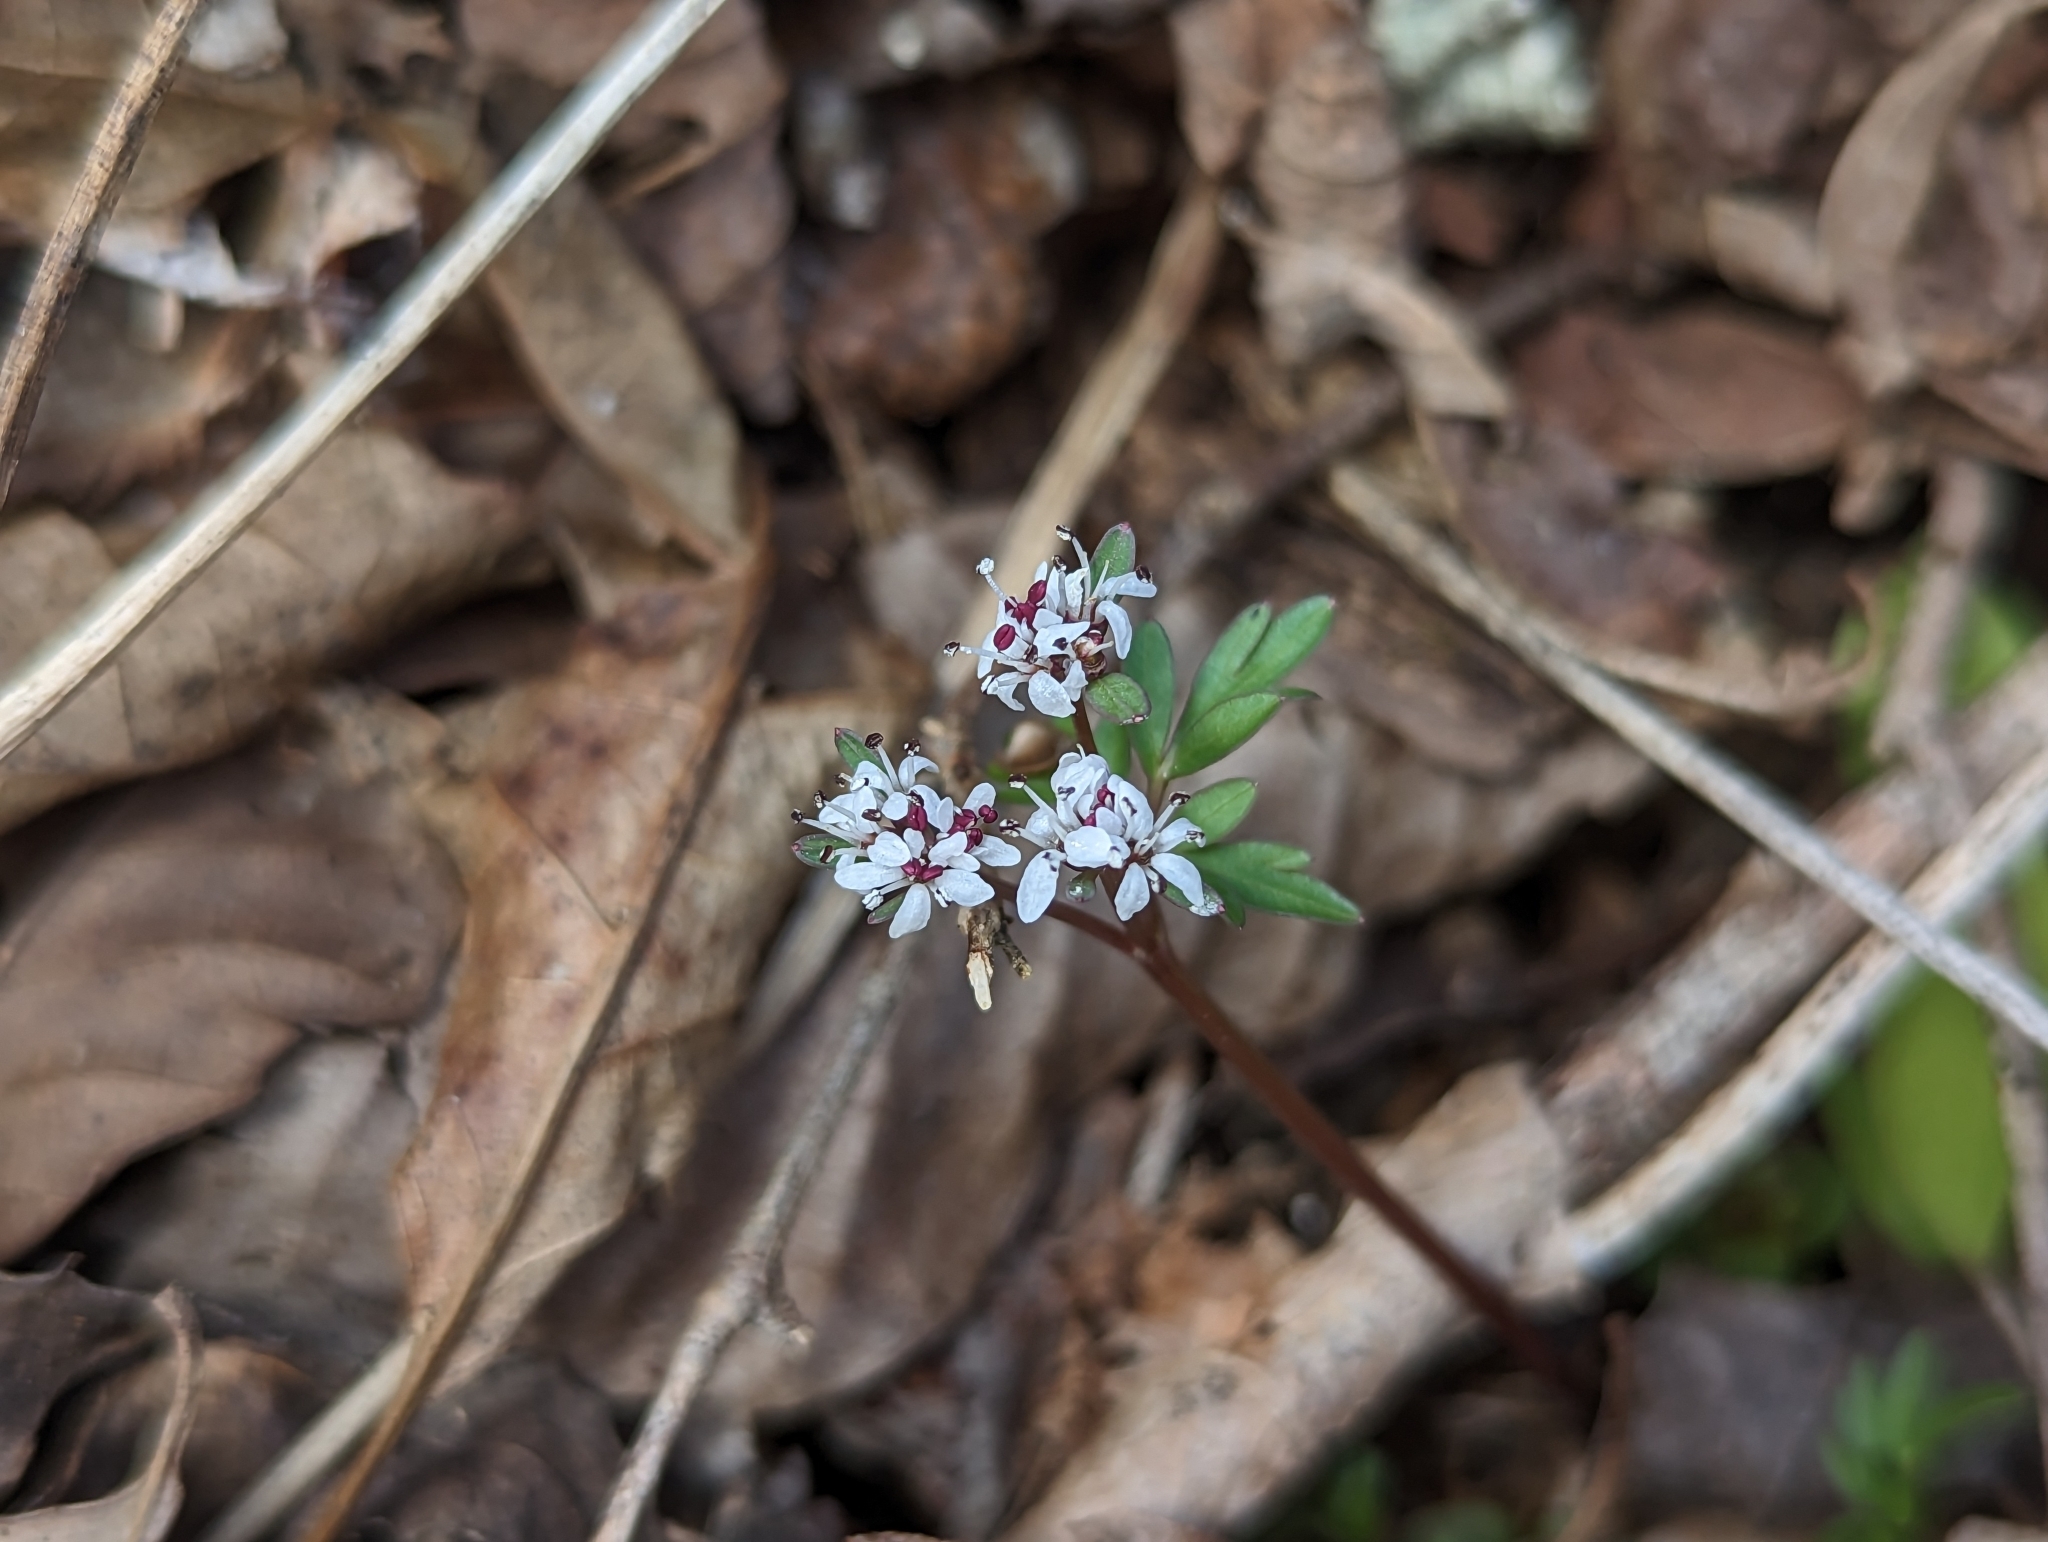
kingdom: Plantae
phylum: Tracheophyta
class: Magnoliopsida
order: Apiales
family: Apiaceae
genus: Erigenia
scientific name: Erigenia bulbosa
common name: Pepper-and-salt
